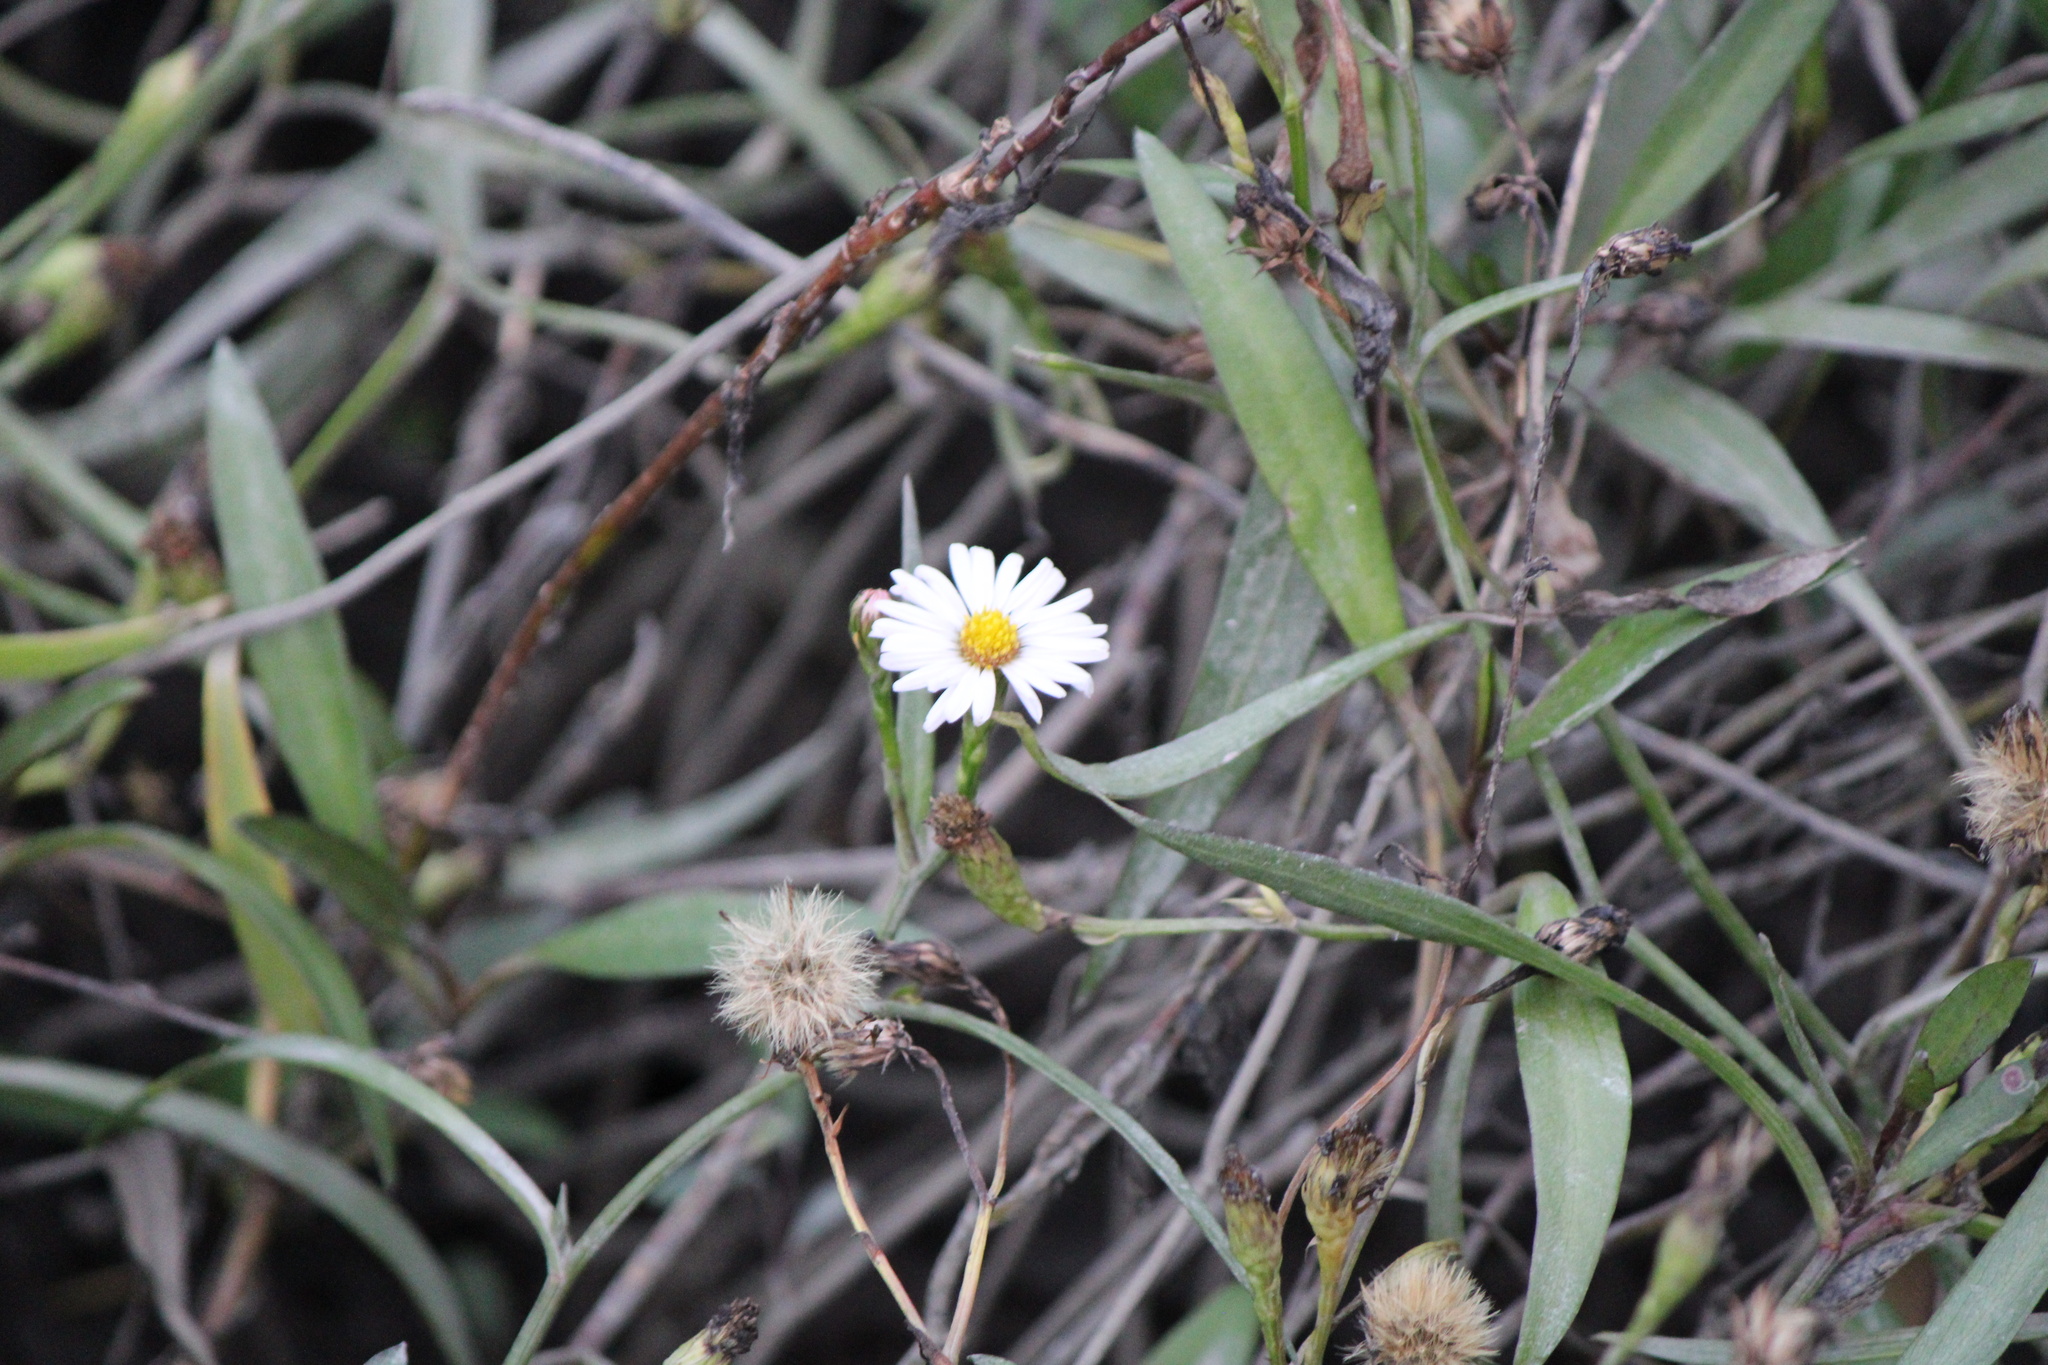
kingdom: Plantae
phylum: Tracheophyta
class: Magnoliopsida
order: Asterales
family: Asteraceae
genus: Symphyotrichum
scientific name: Symphyotrichum tenuifolium
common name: Perennial salt-marsh aster
